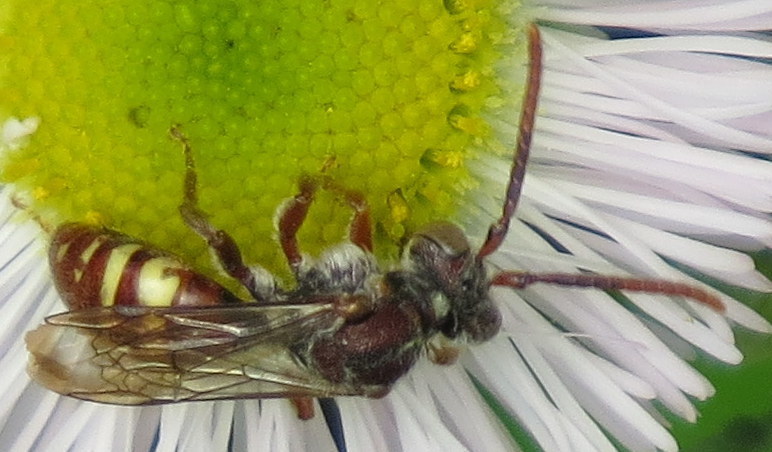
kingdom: Animalia
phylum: Arthropoda
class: Insecta
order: Hymenoptera
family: Apidae
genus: Nomada
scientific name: Nomada
